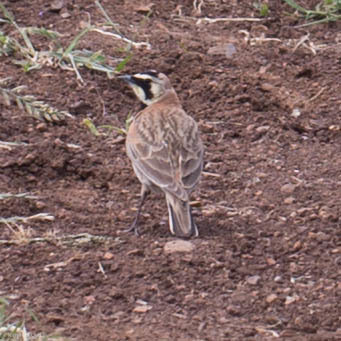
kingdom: Animalia
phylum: Chordata
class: Aves
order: Passeriformes
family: Alaudidae
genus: Eremophila
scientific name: Eremophila alpestris
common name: Horned lark
